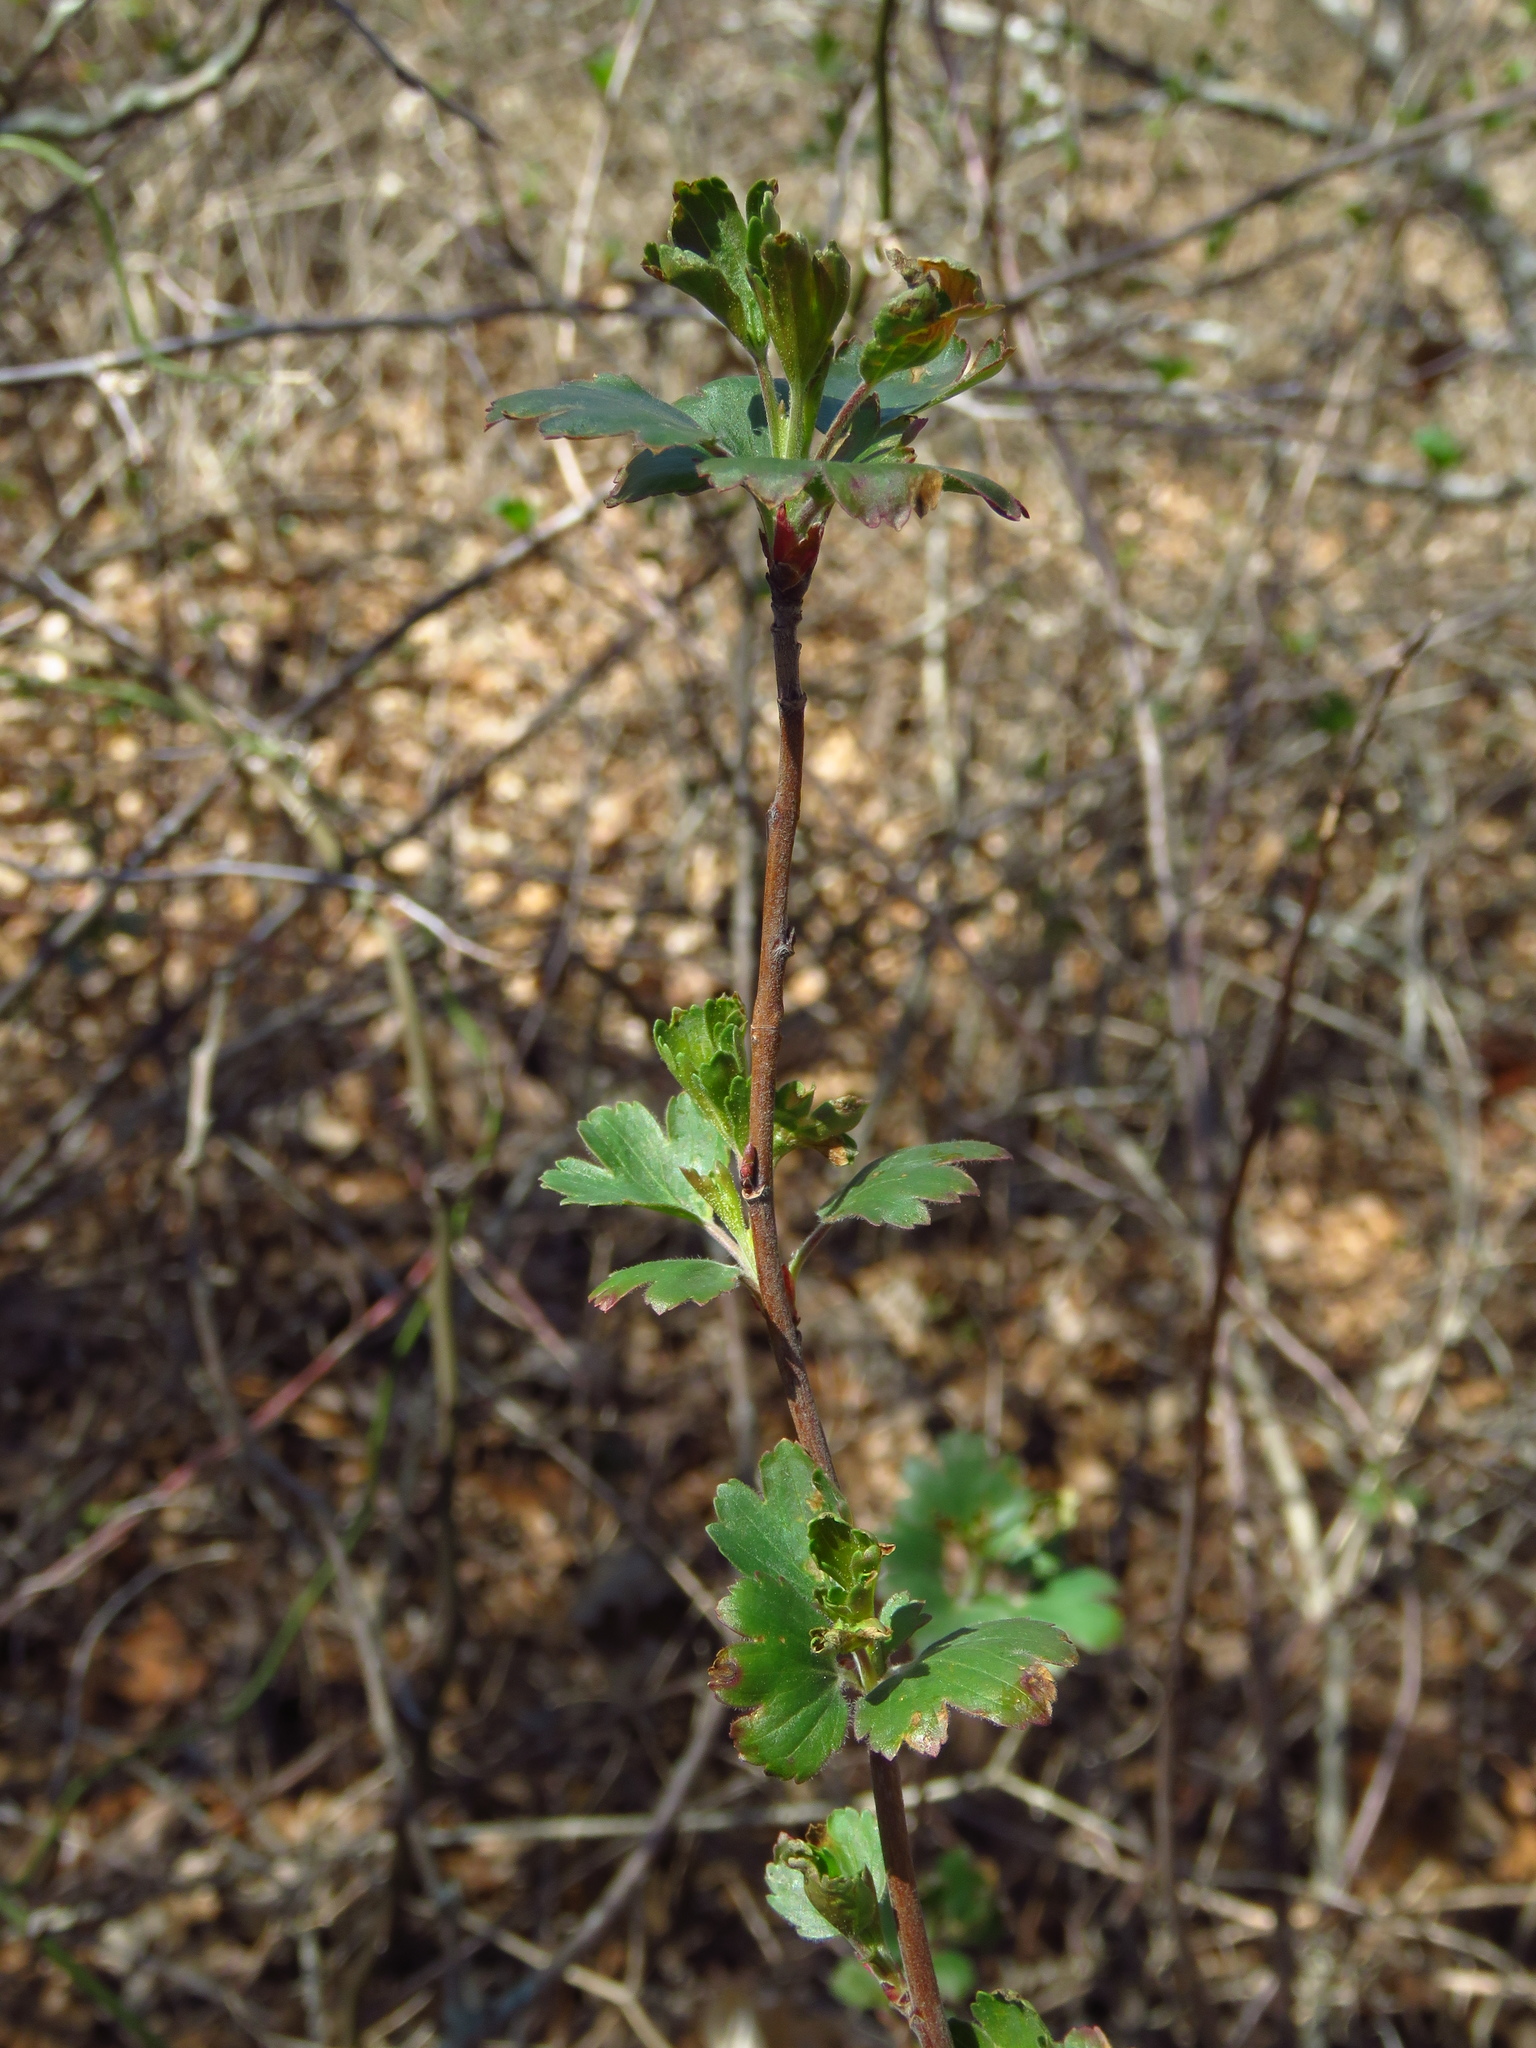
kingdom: Plantae
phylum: Tracheophyta
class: Magnoliopsida
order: Saxifragales
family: Grossulariaceae
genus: Ribes
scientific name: Ribes aureum
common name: Golden currant
